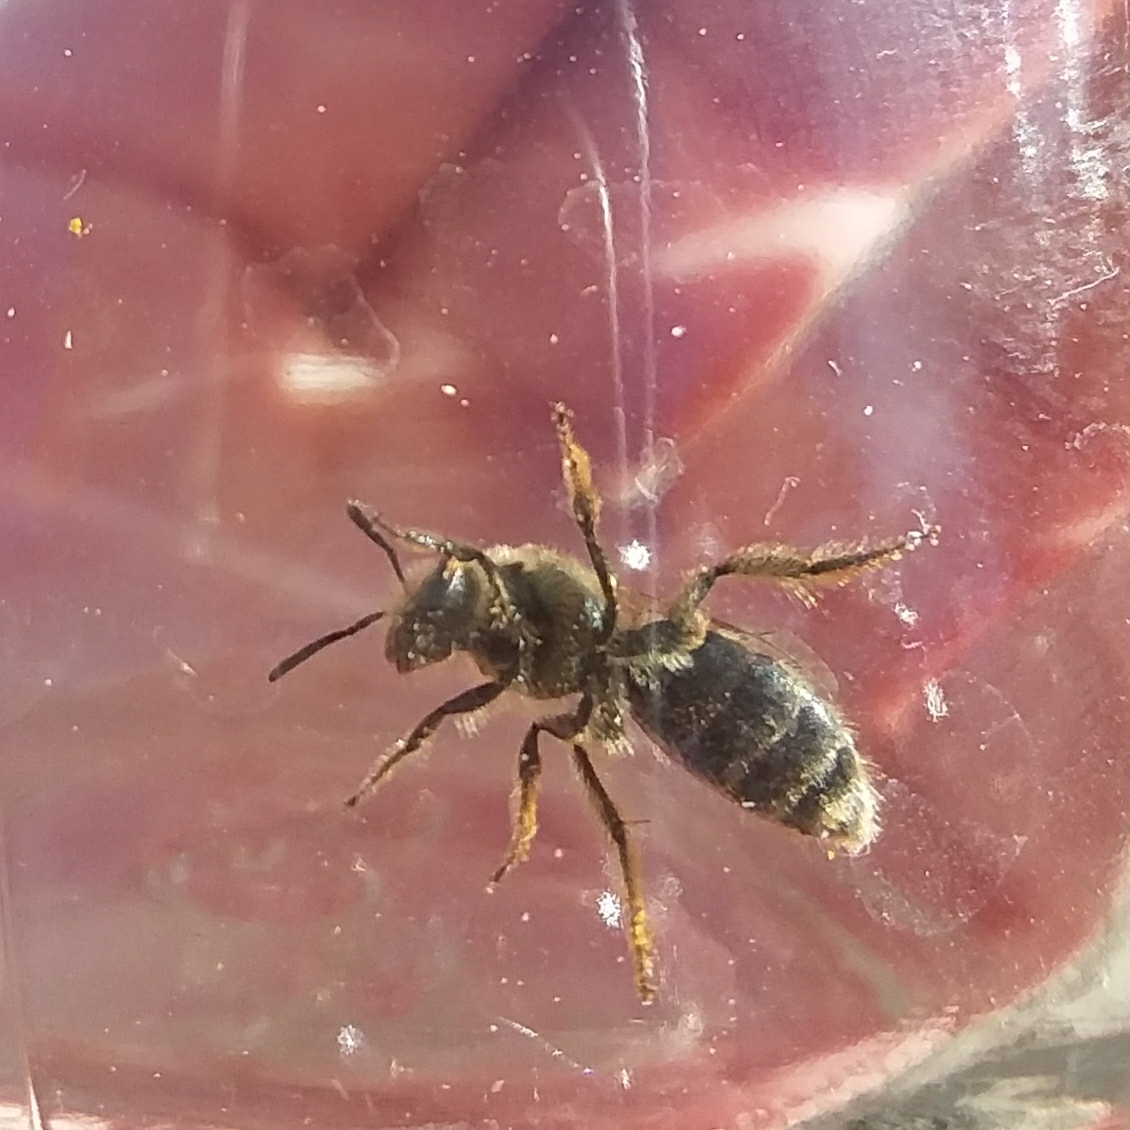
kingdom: Animalia
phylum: Arthropoda
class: Insecta
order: Hymenoptera
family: Halictidae
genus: Lasioglossum
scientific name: Lasioglossum pavonotum
